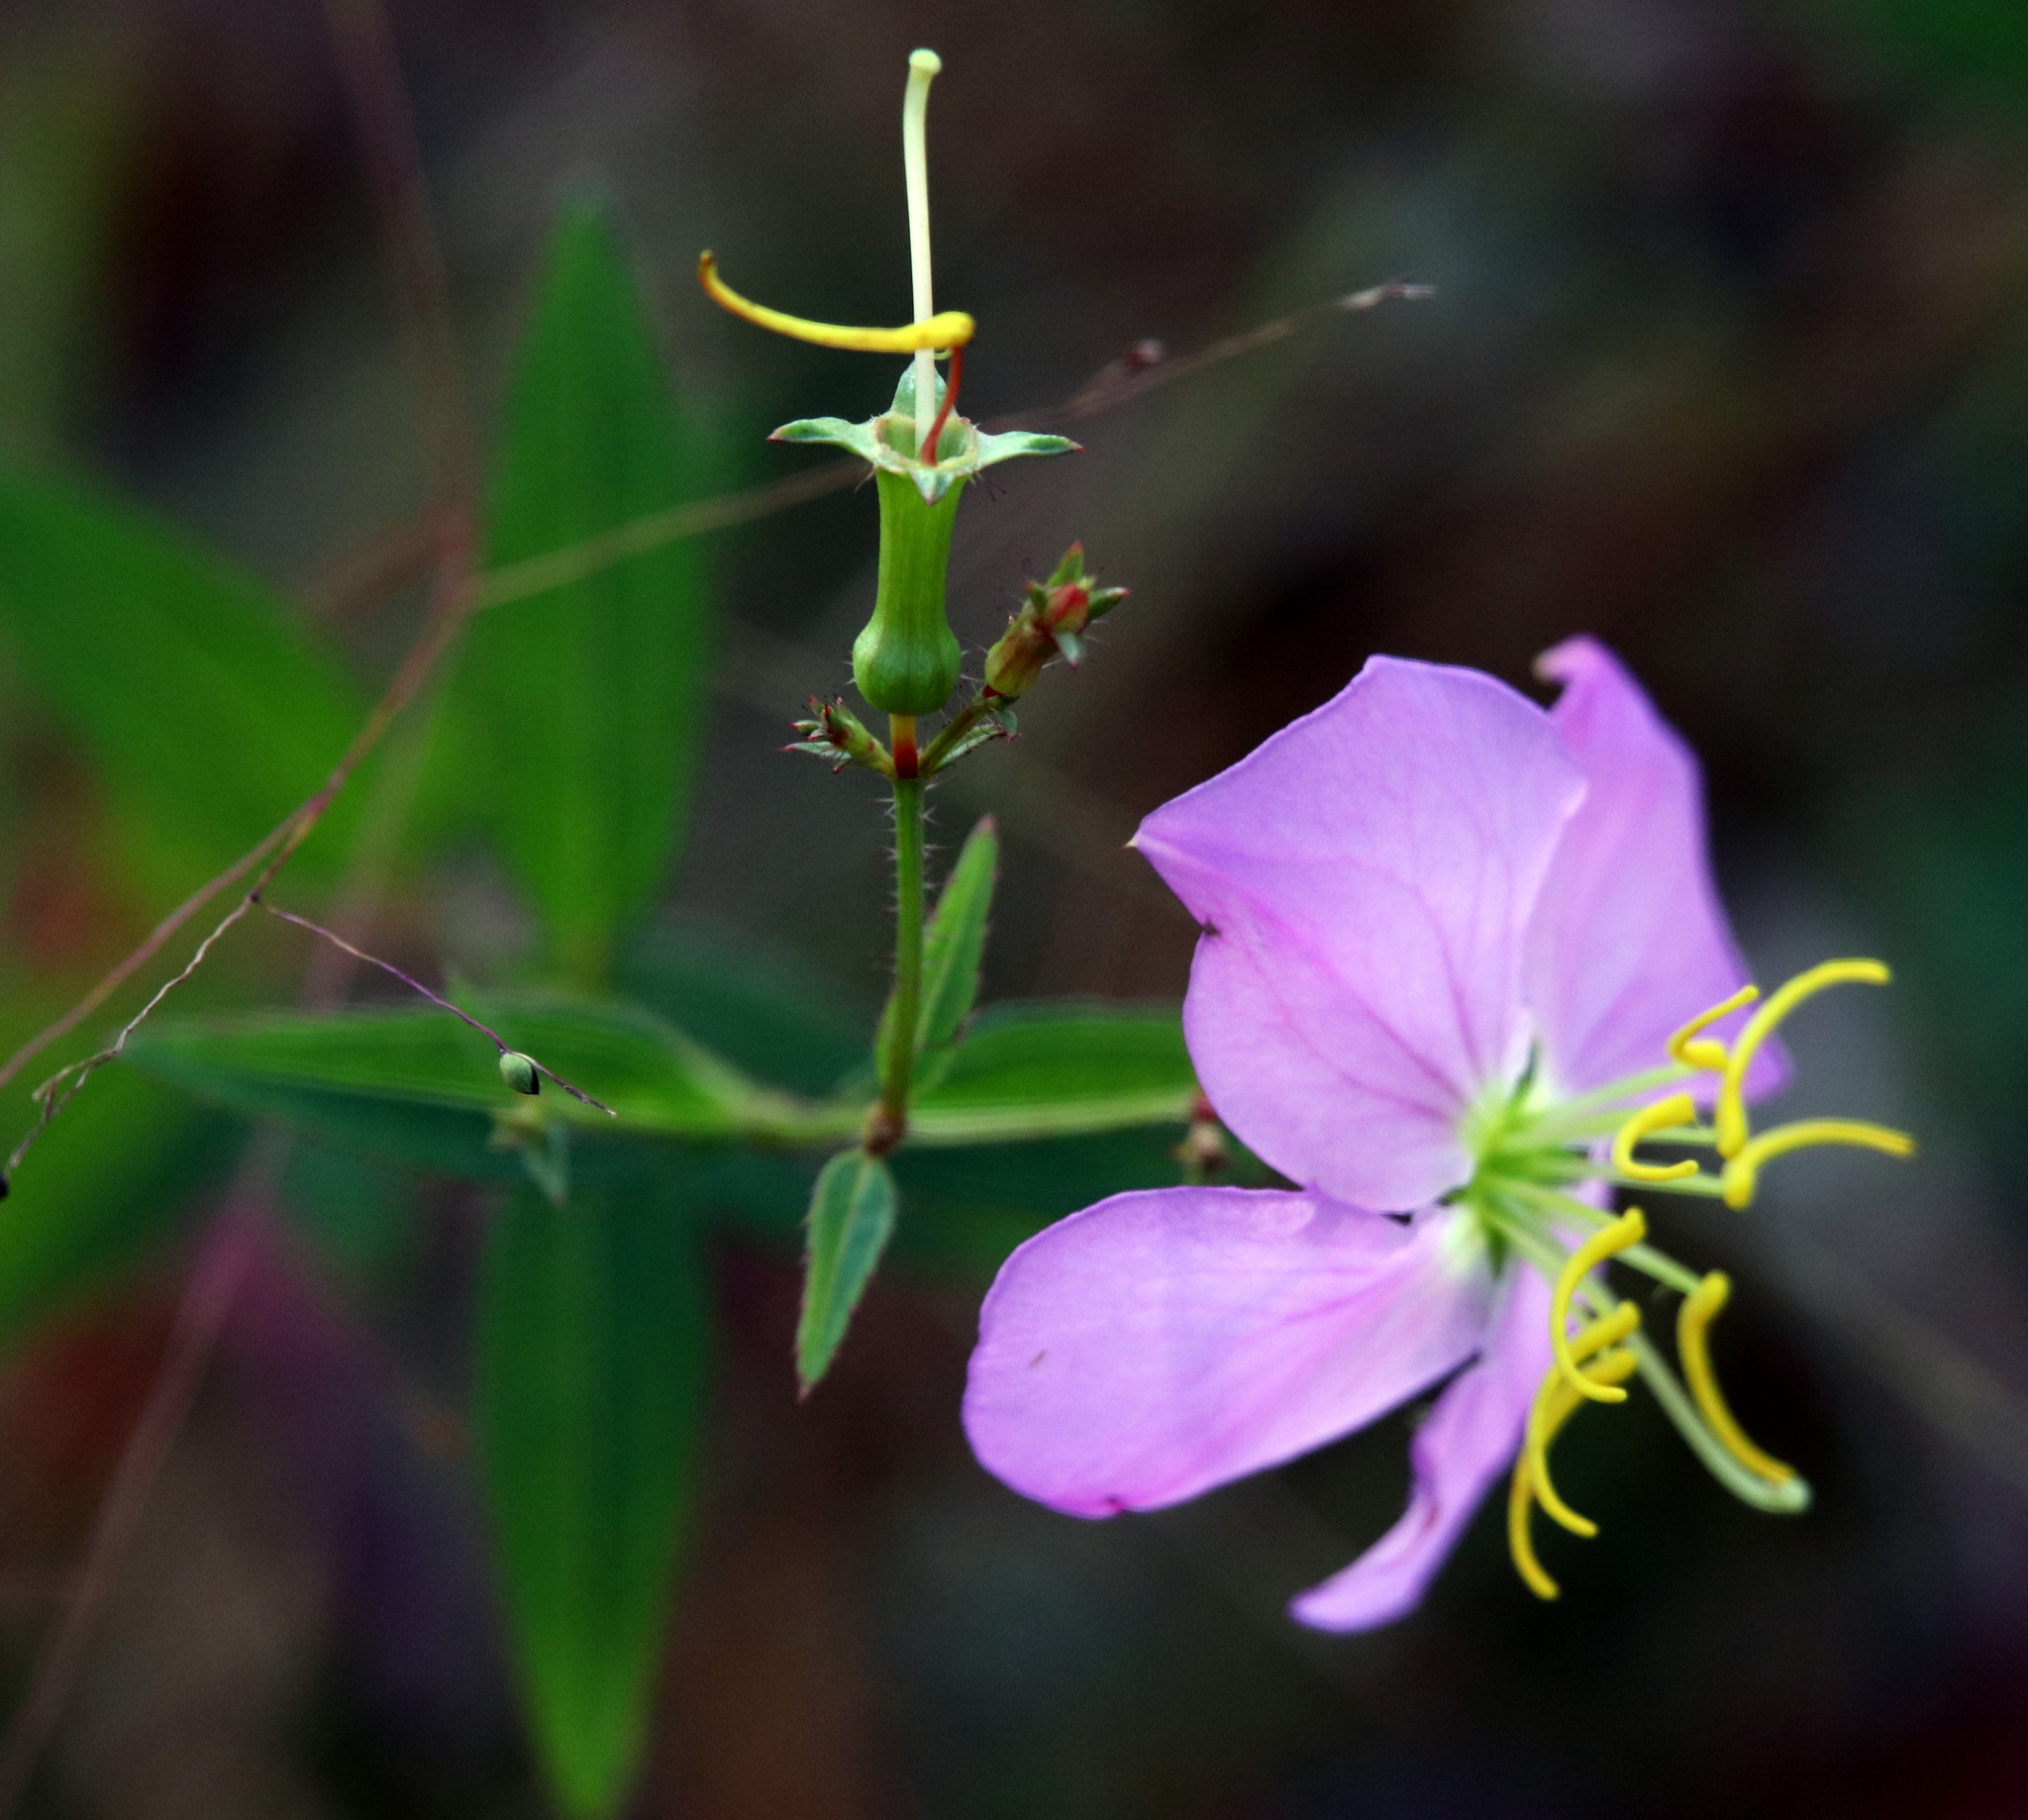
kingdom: Plantae
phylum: Tracheophyta
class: Magnoliopsida
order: Myrtales
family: Melastomataceae
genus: Rhexia
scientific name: Rhexia nashii
